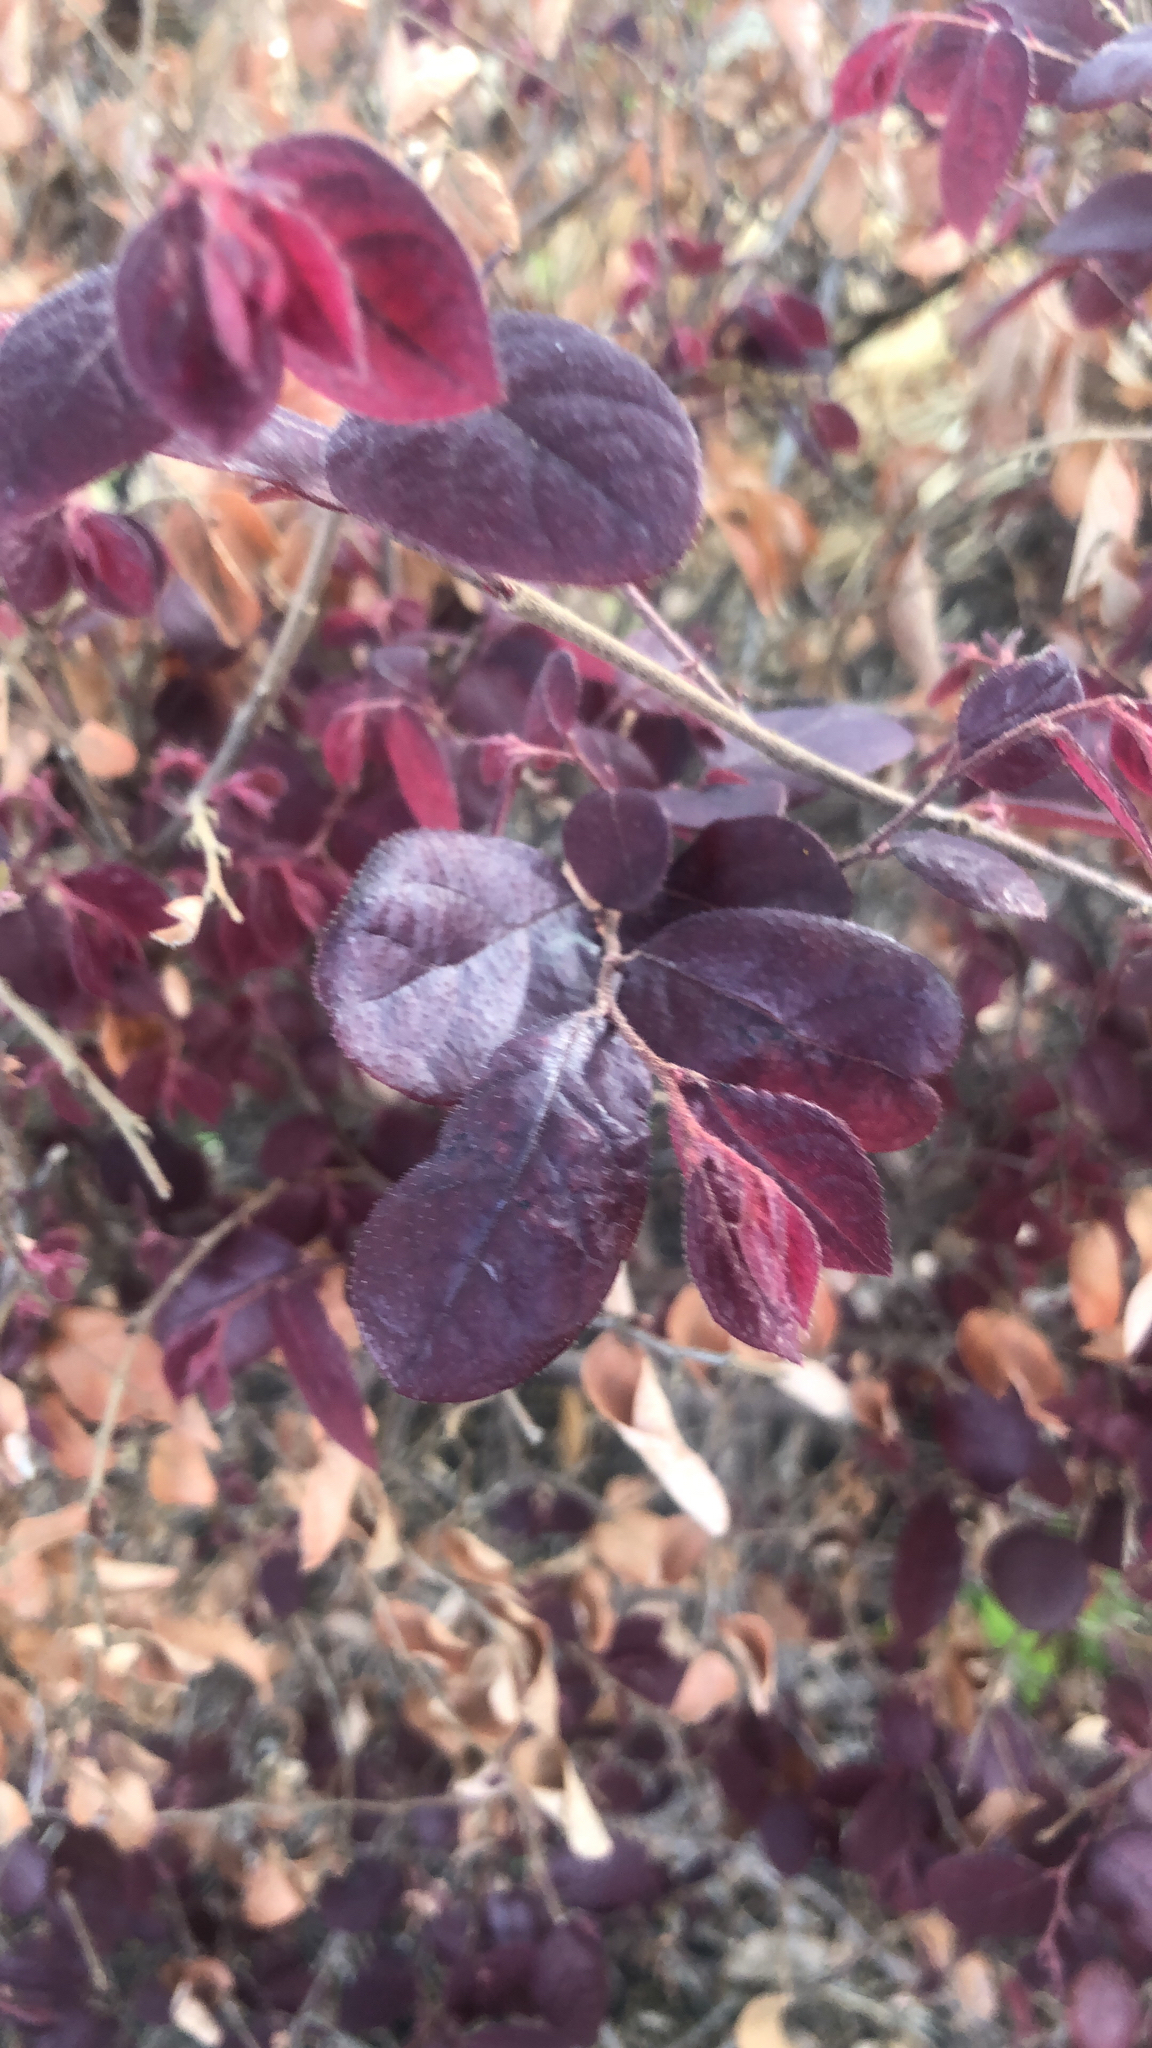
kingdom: Plantae
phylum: Tracheophyta
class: Magnoliopsida
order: Saxifragales
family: Hamamelidaceae
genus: Loropetalum
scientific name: Loropetalum chinense
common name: Chinese fringe flower
